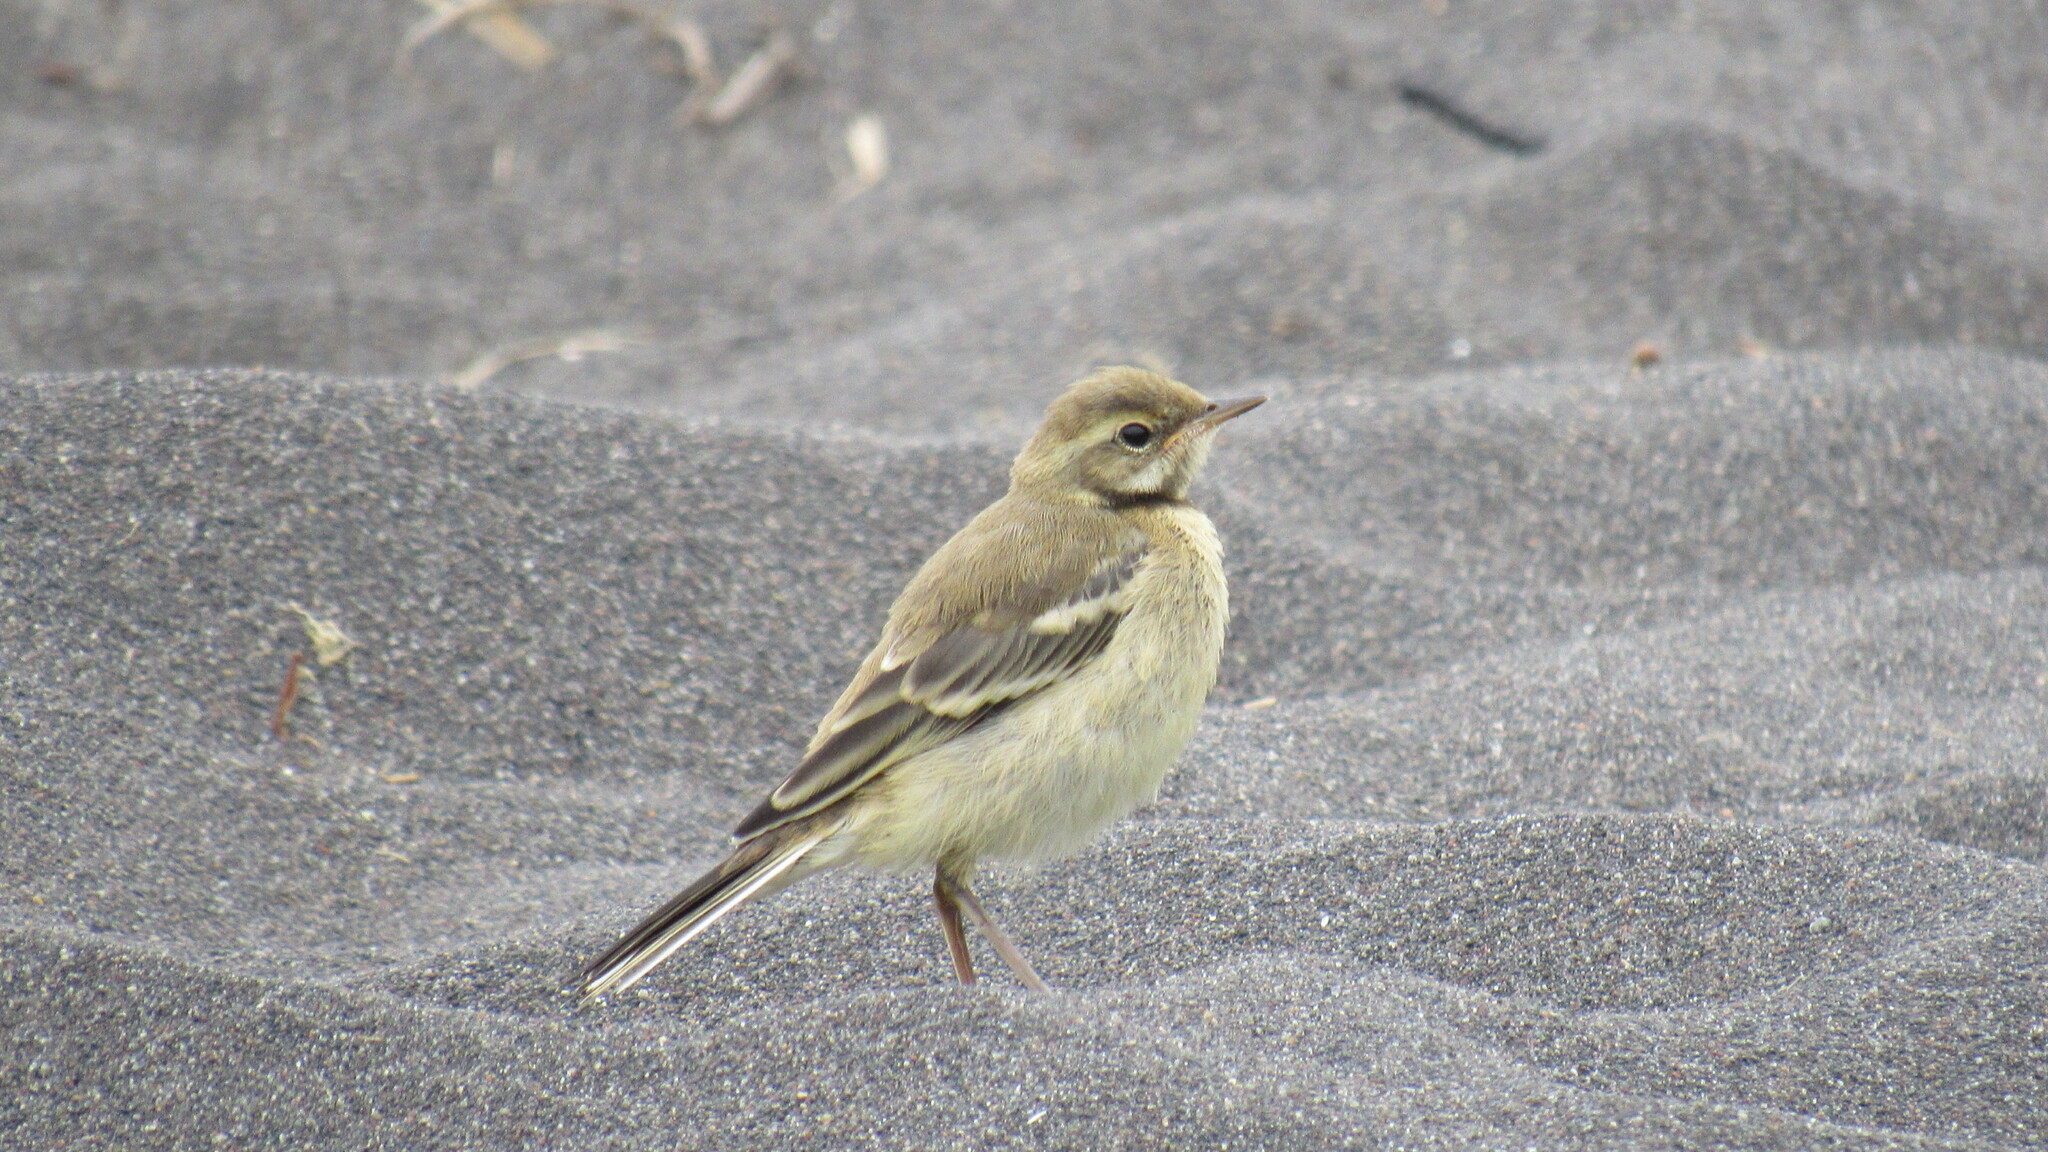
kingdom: Animalia
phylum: Chordata
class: Aves
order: Passeriformes
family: Motacillidae
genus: Motacilla
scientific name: Motacilla tschutschensis
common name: Eastern yellow wagtail
